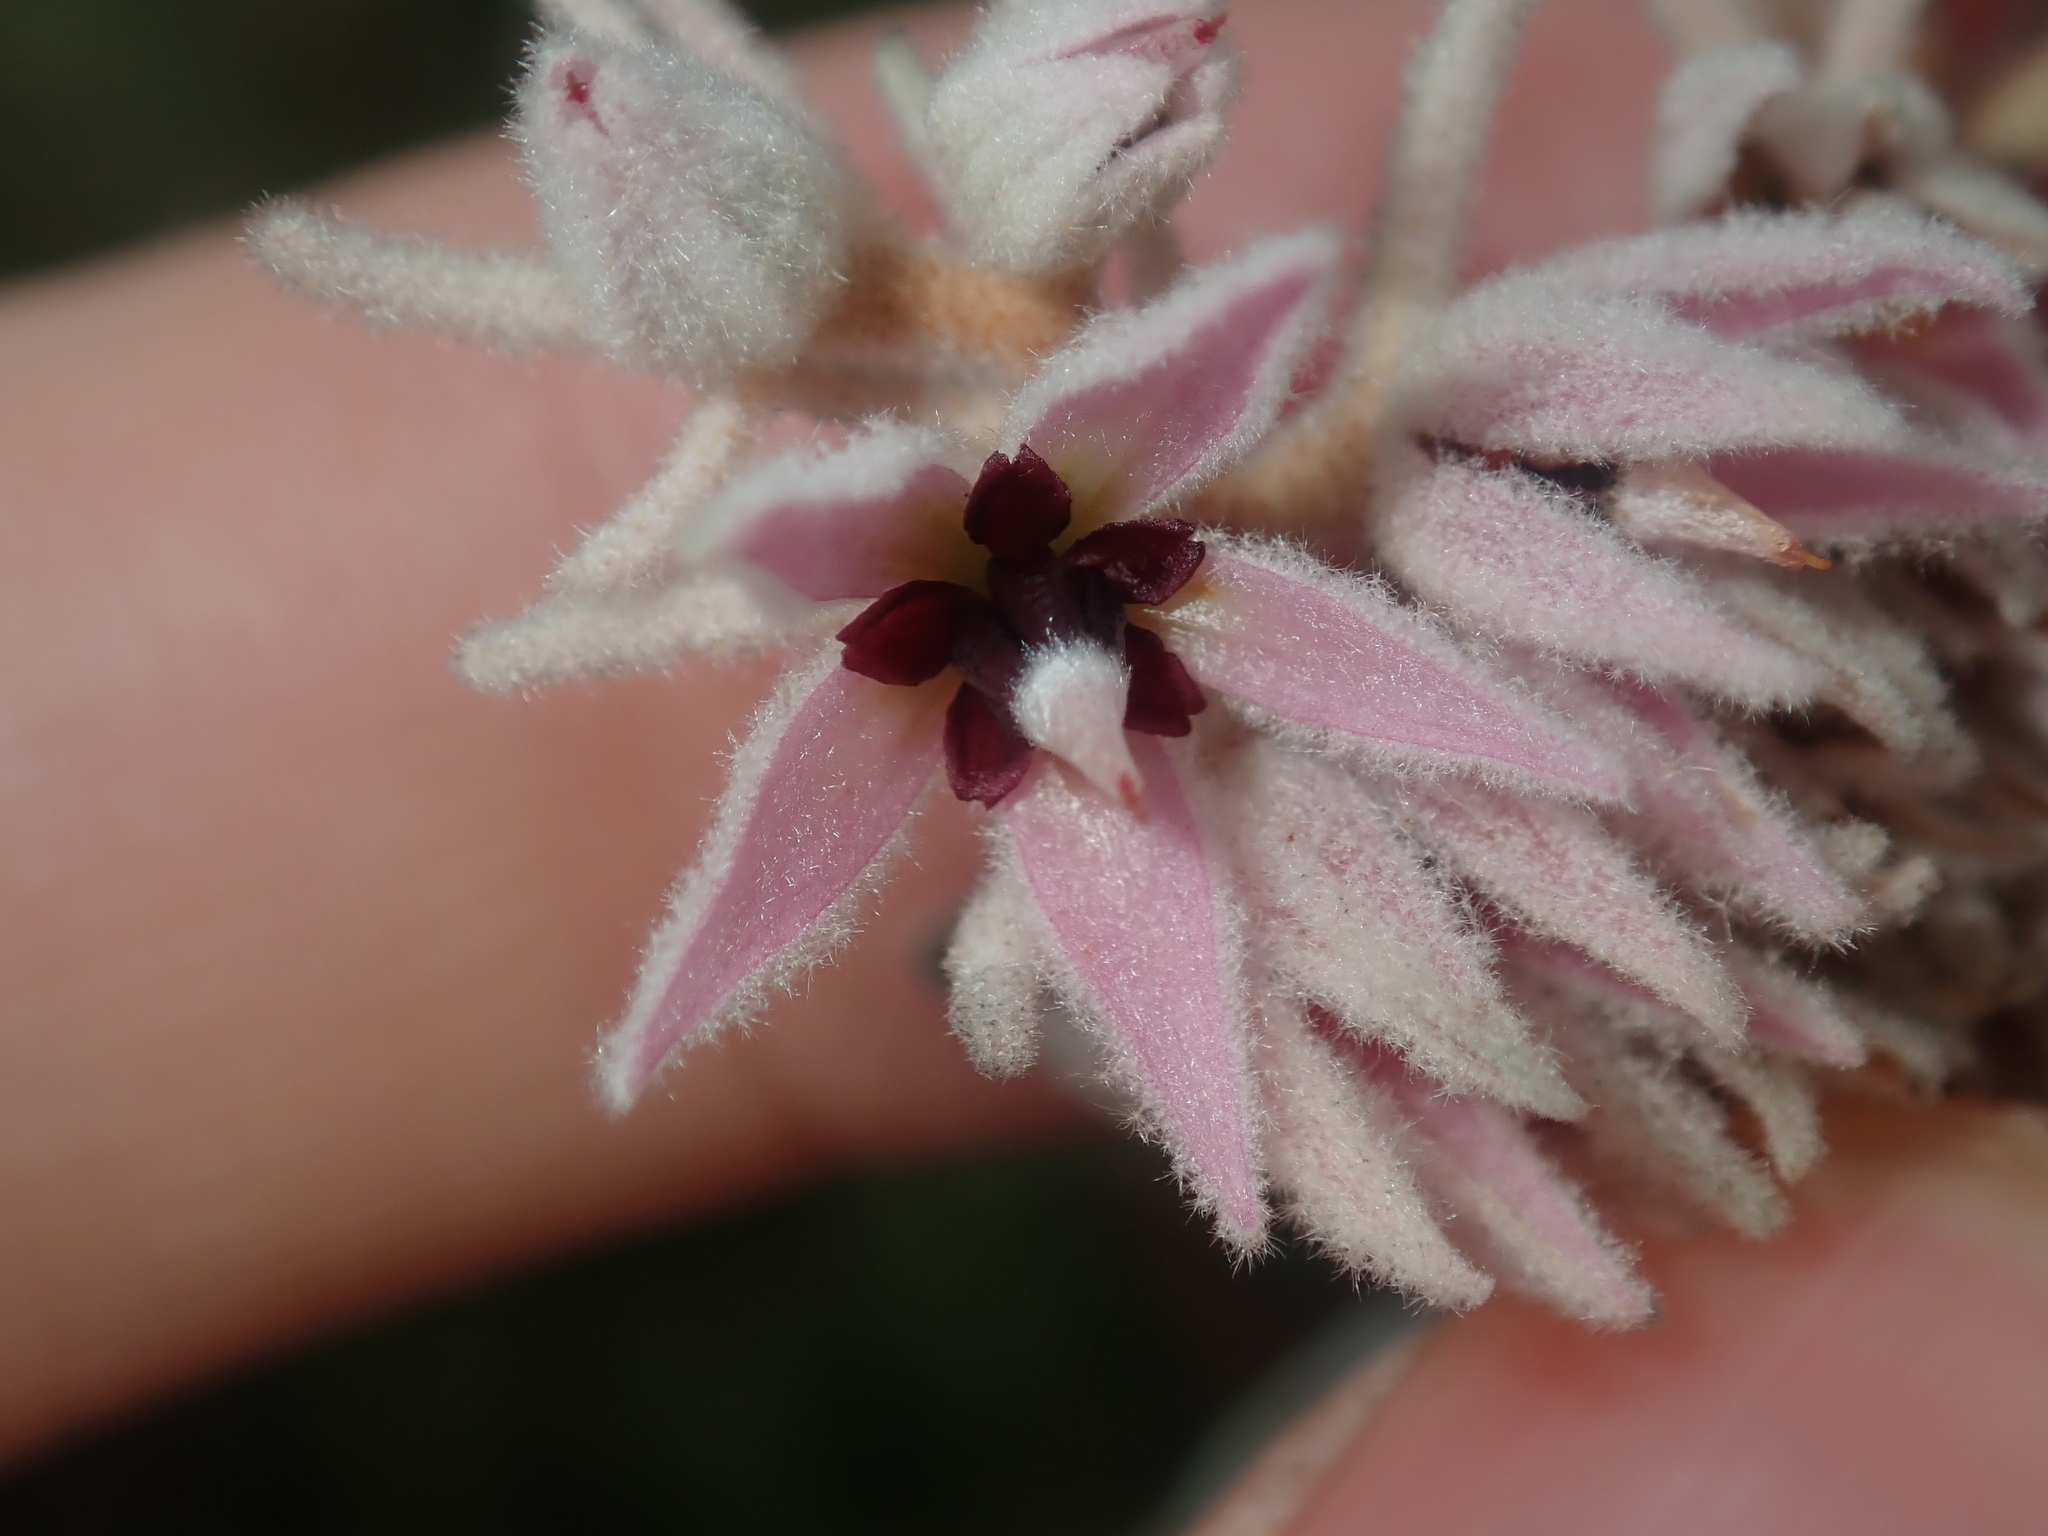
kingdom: Plantae
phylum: Tracheophyta
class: Magnoliopsida
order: Malvales
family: Malvaceae
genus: Lasiopetalum
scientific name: Lasiopetalum drummondii
